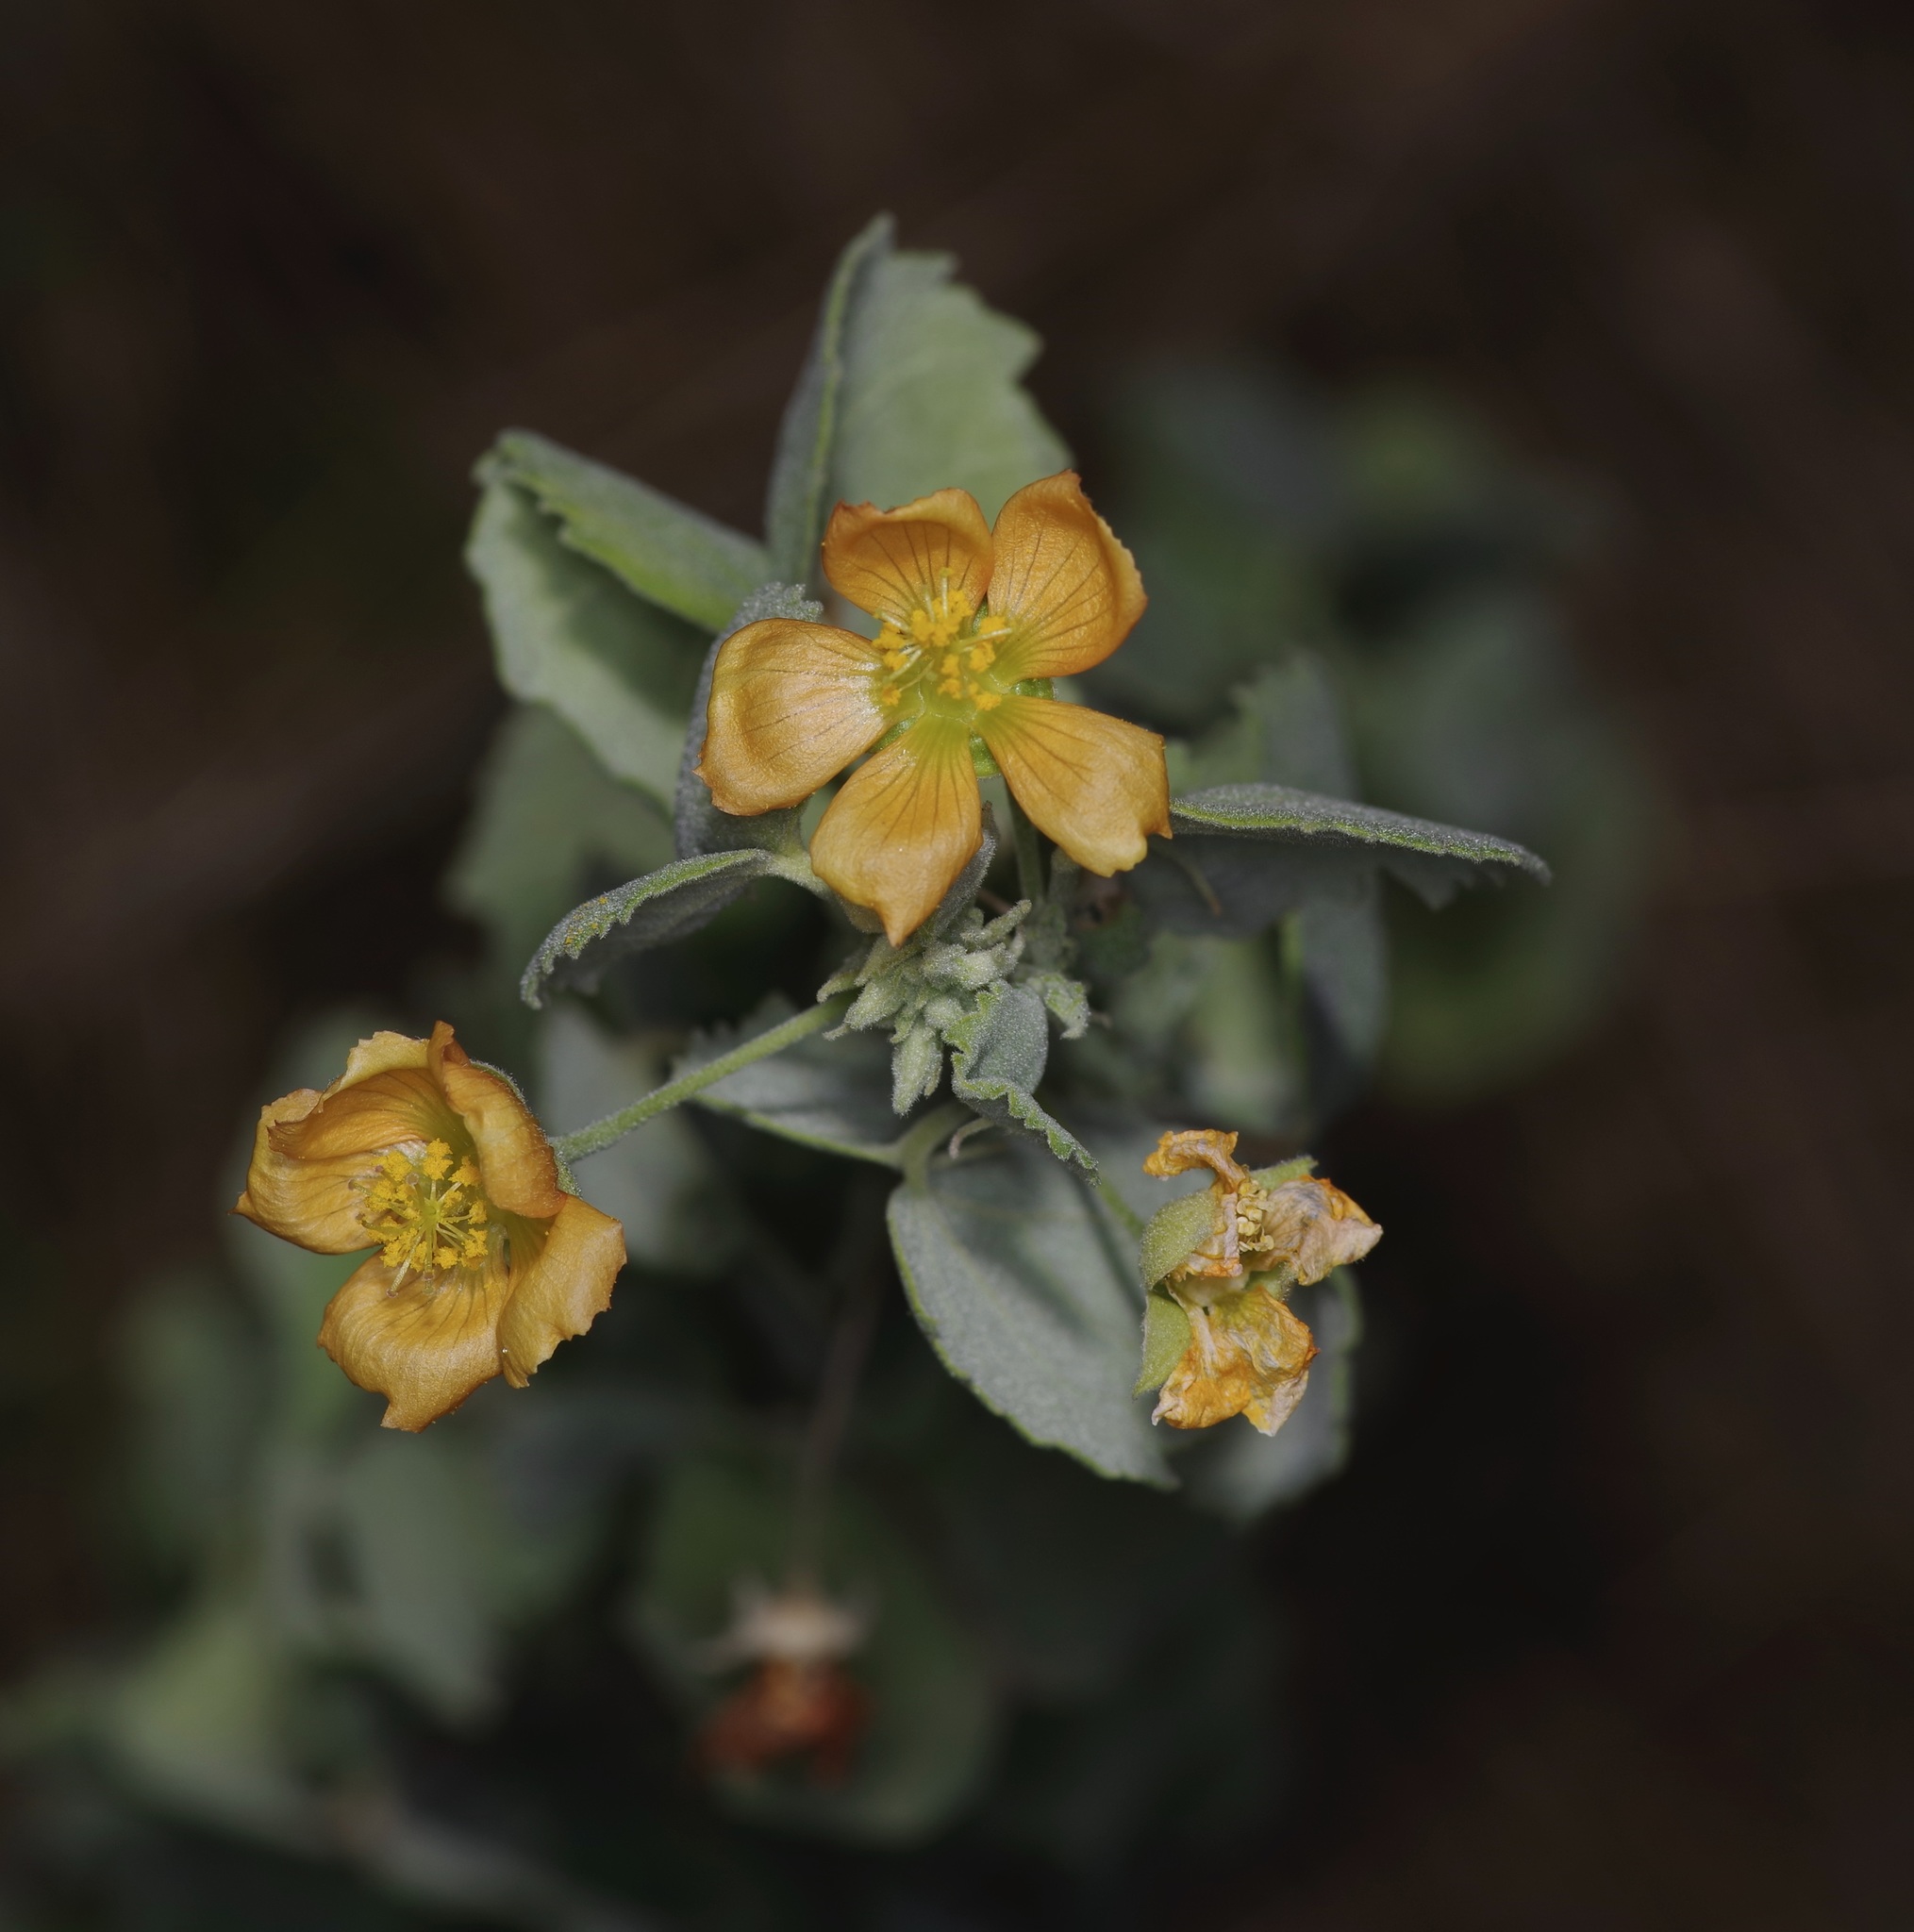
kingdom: Plantae
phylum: Tracheophyta
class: Magnoliopsida
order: Malvales
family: Malvaceae
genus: Abutilon
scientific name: Abutilon fruticosum
